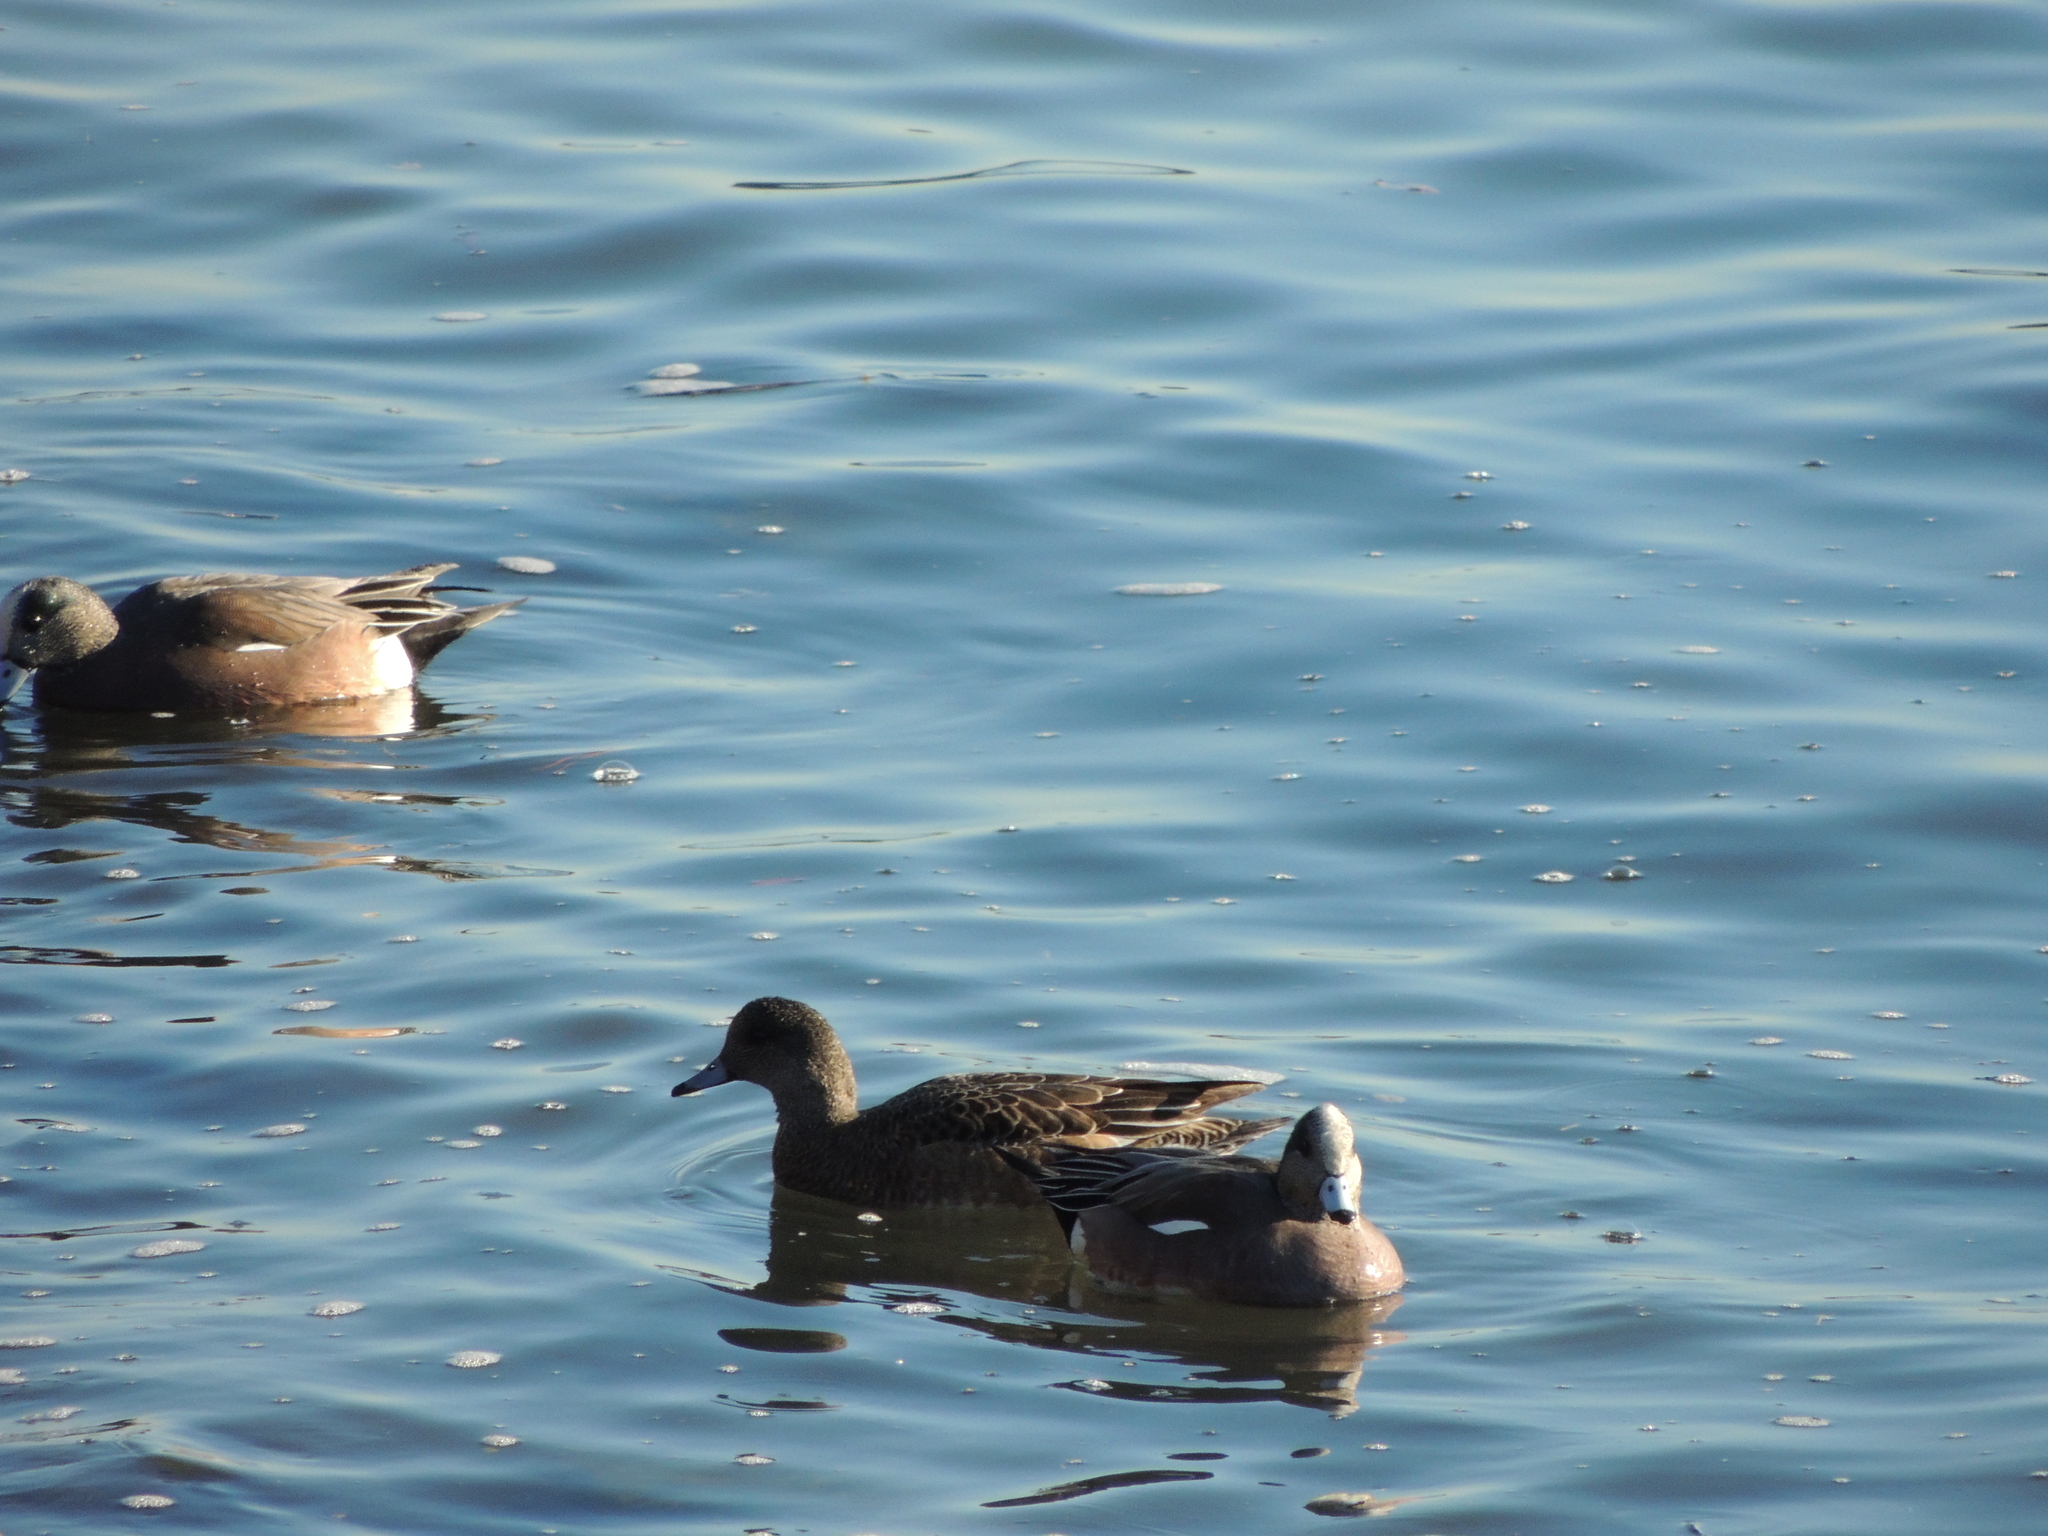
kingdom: Animalia
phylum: Chordata
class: Aves
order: Anseriformes
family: Anatidae
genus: Mareca
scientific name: Mareca americana
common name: American wigeon
